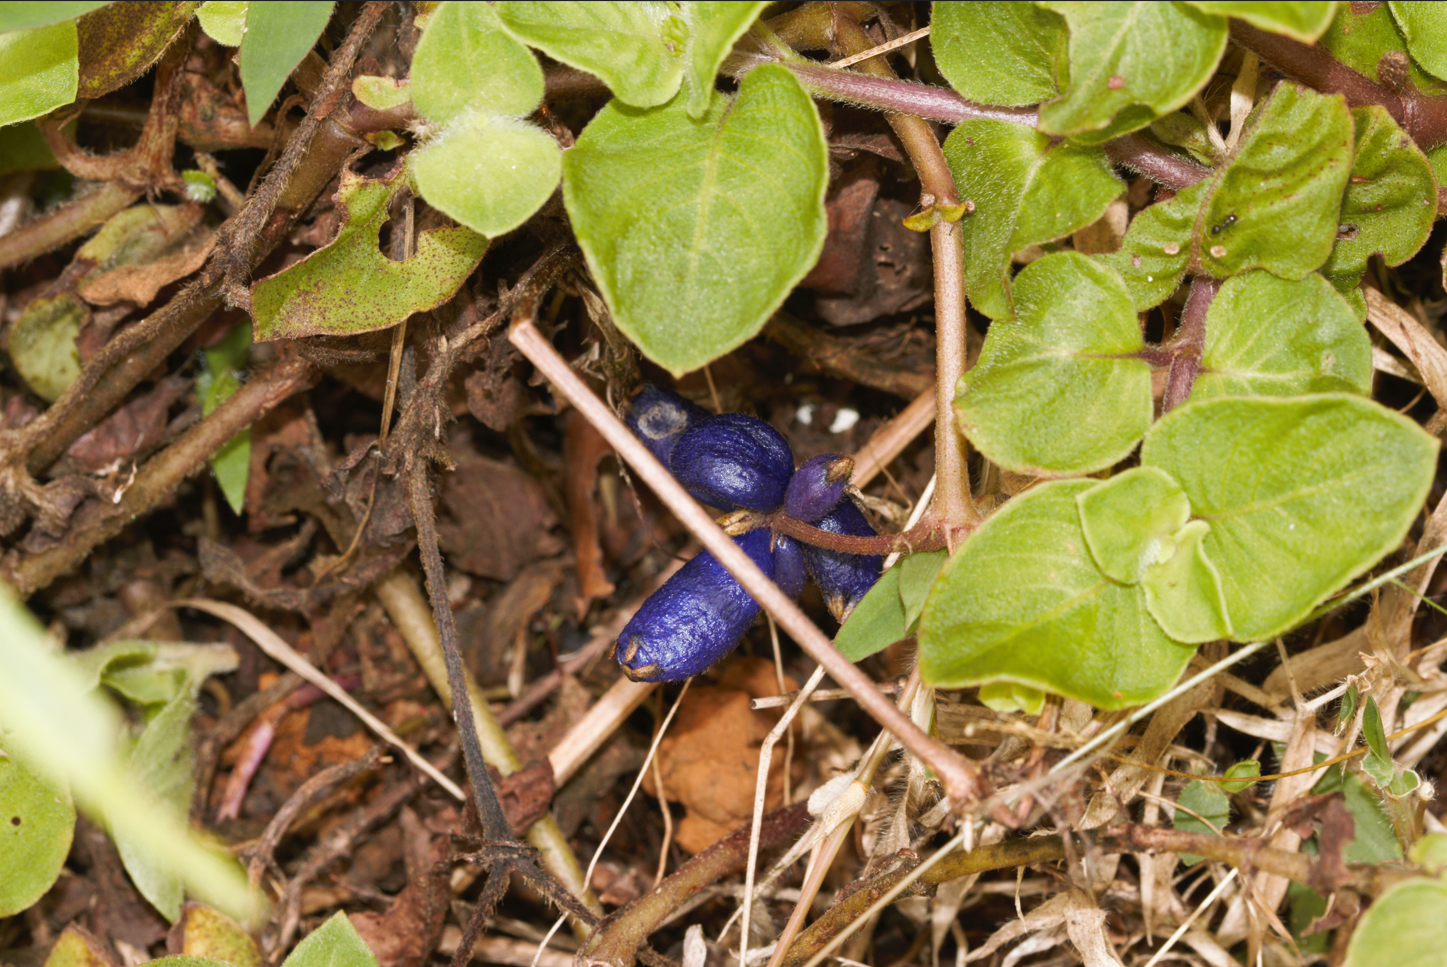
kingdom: Plantae
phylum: Tracheophyta
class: Magnoliopsida
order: Gentianales
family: Rubiaceae
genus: Coccocypselum
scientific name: Coccocypselum guianense
